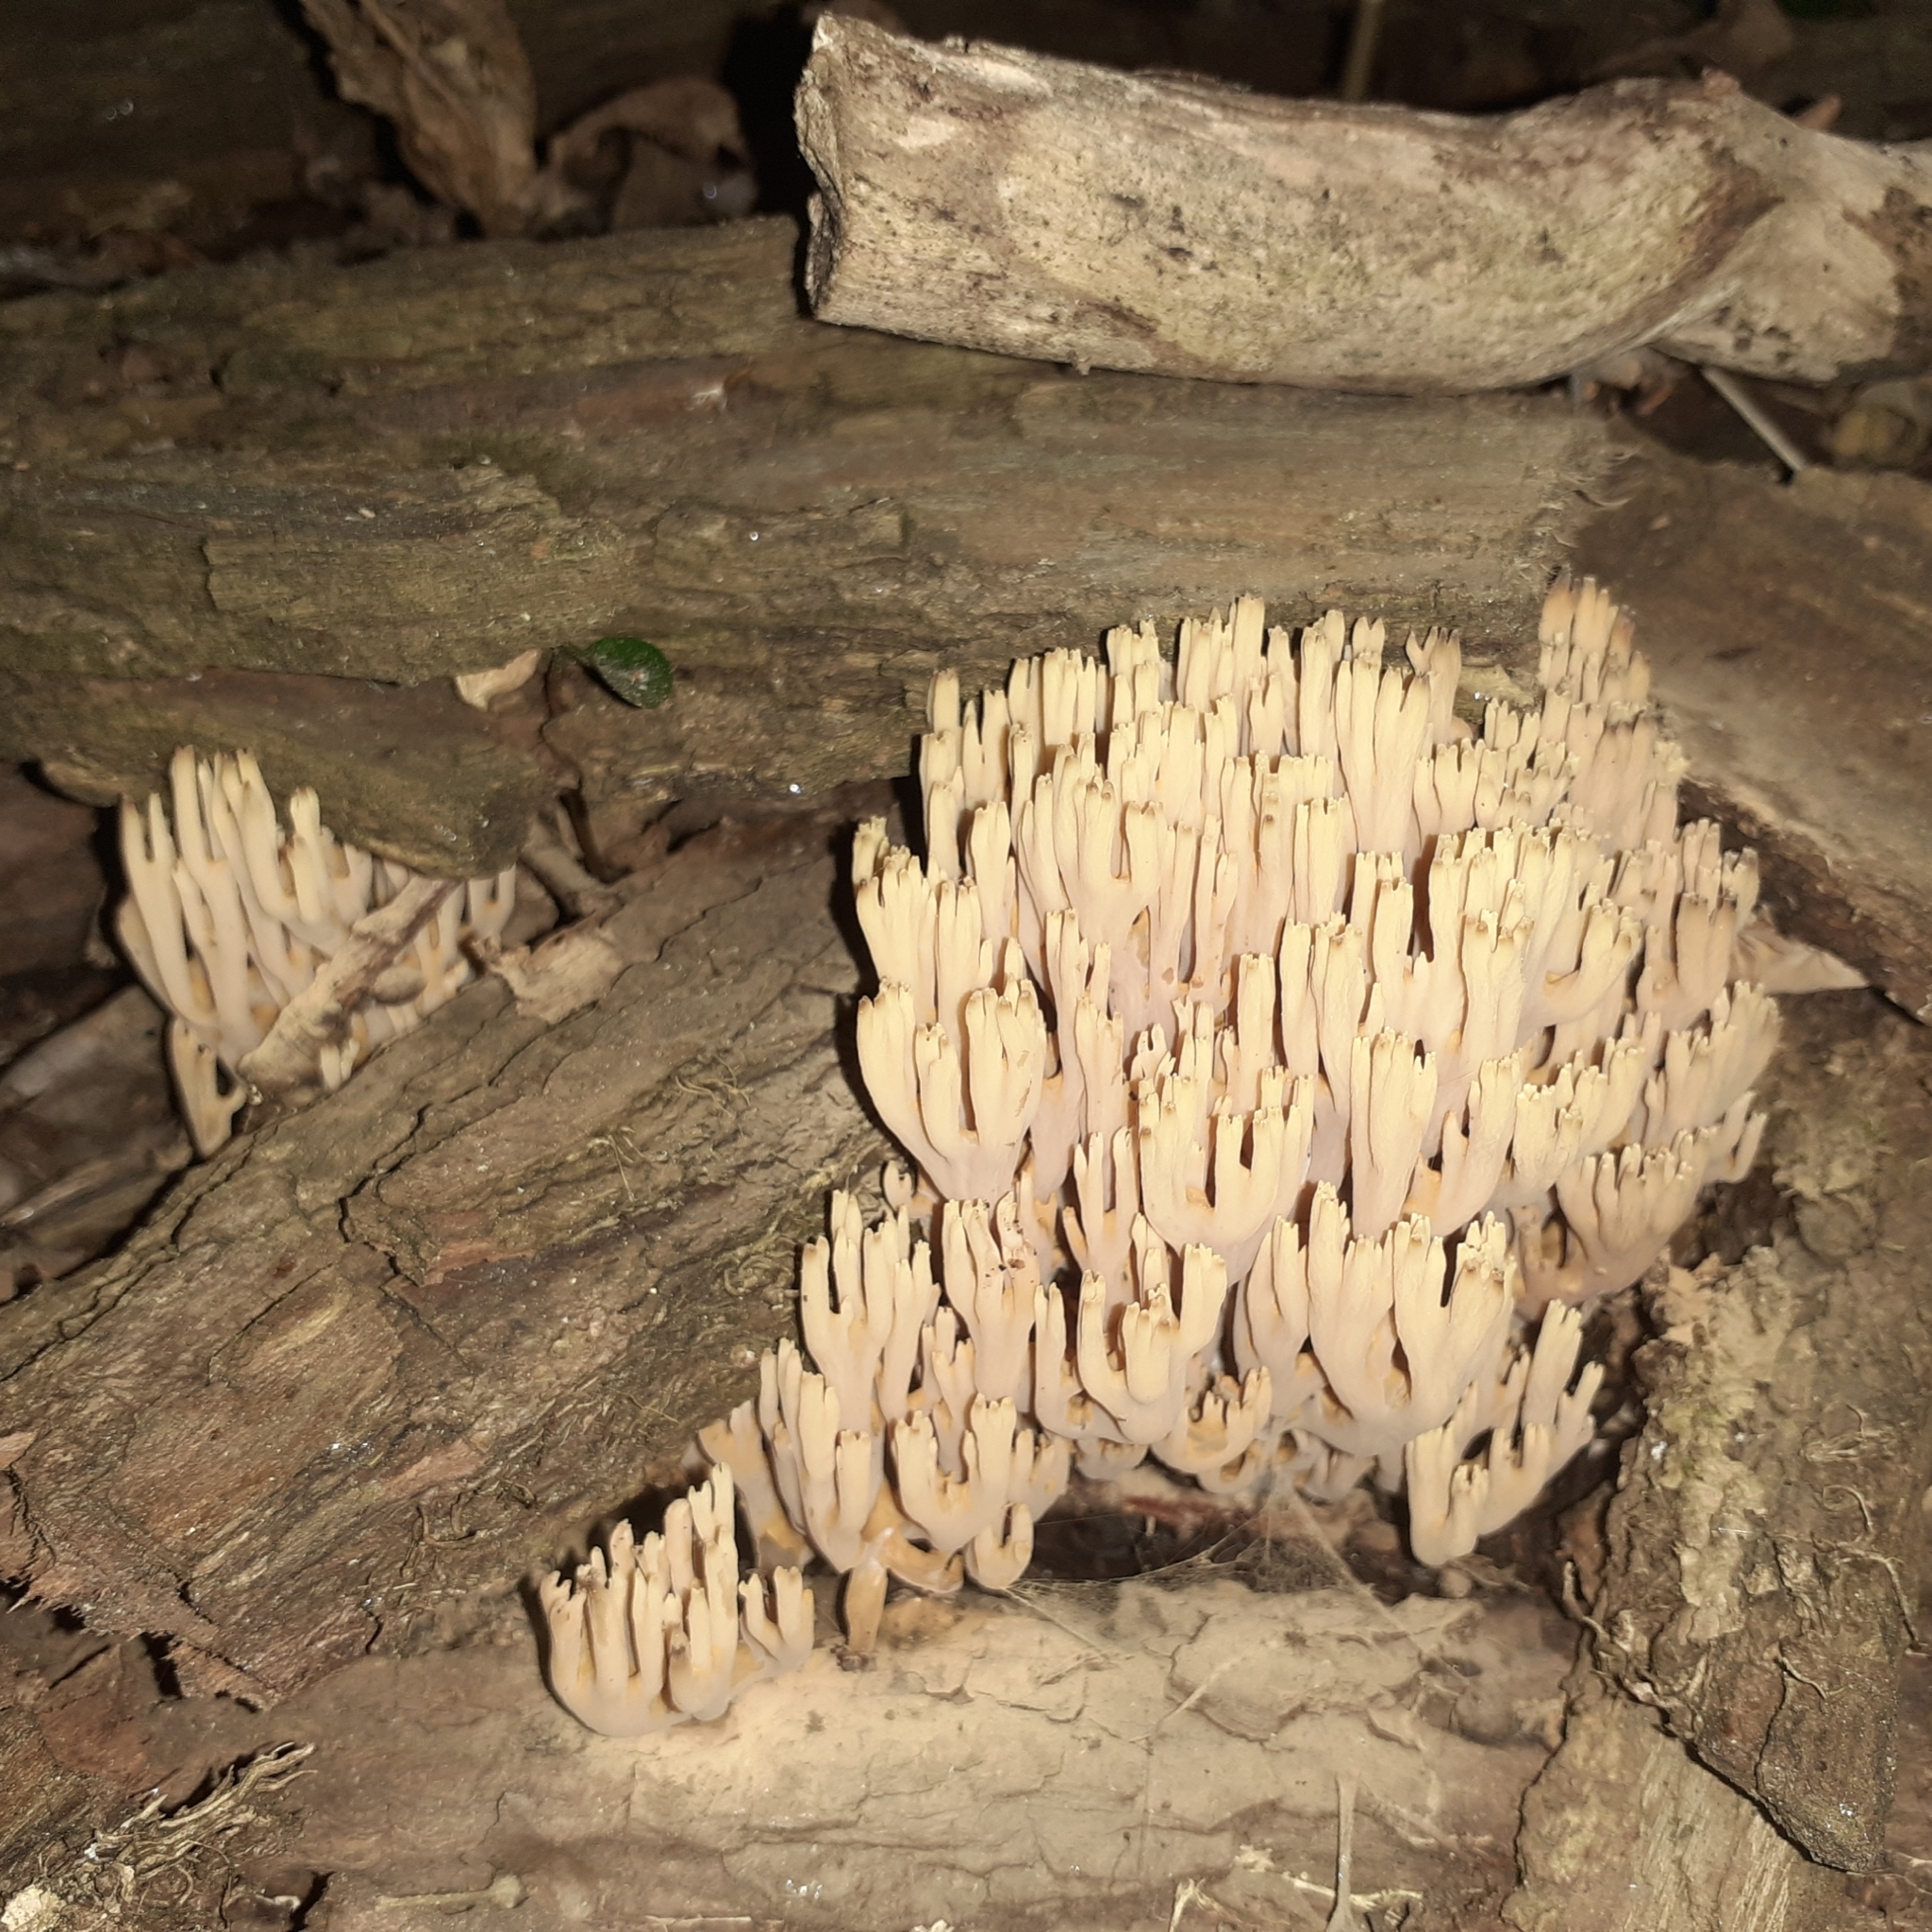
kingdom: Fungi
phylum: Basidiomycota
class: Agaricomycetes
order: Gomphales
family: Gomphaceae
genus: Ramaria
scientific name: Ramaria stricta
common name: Upright coral
